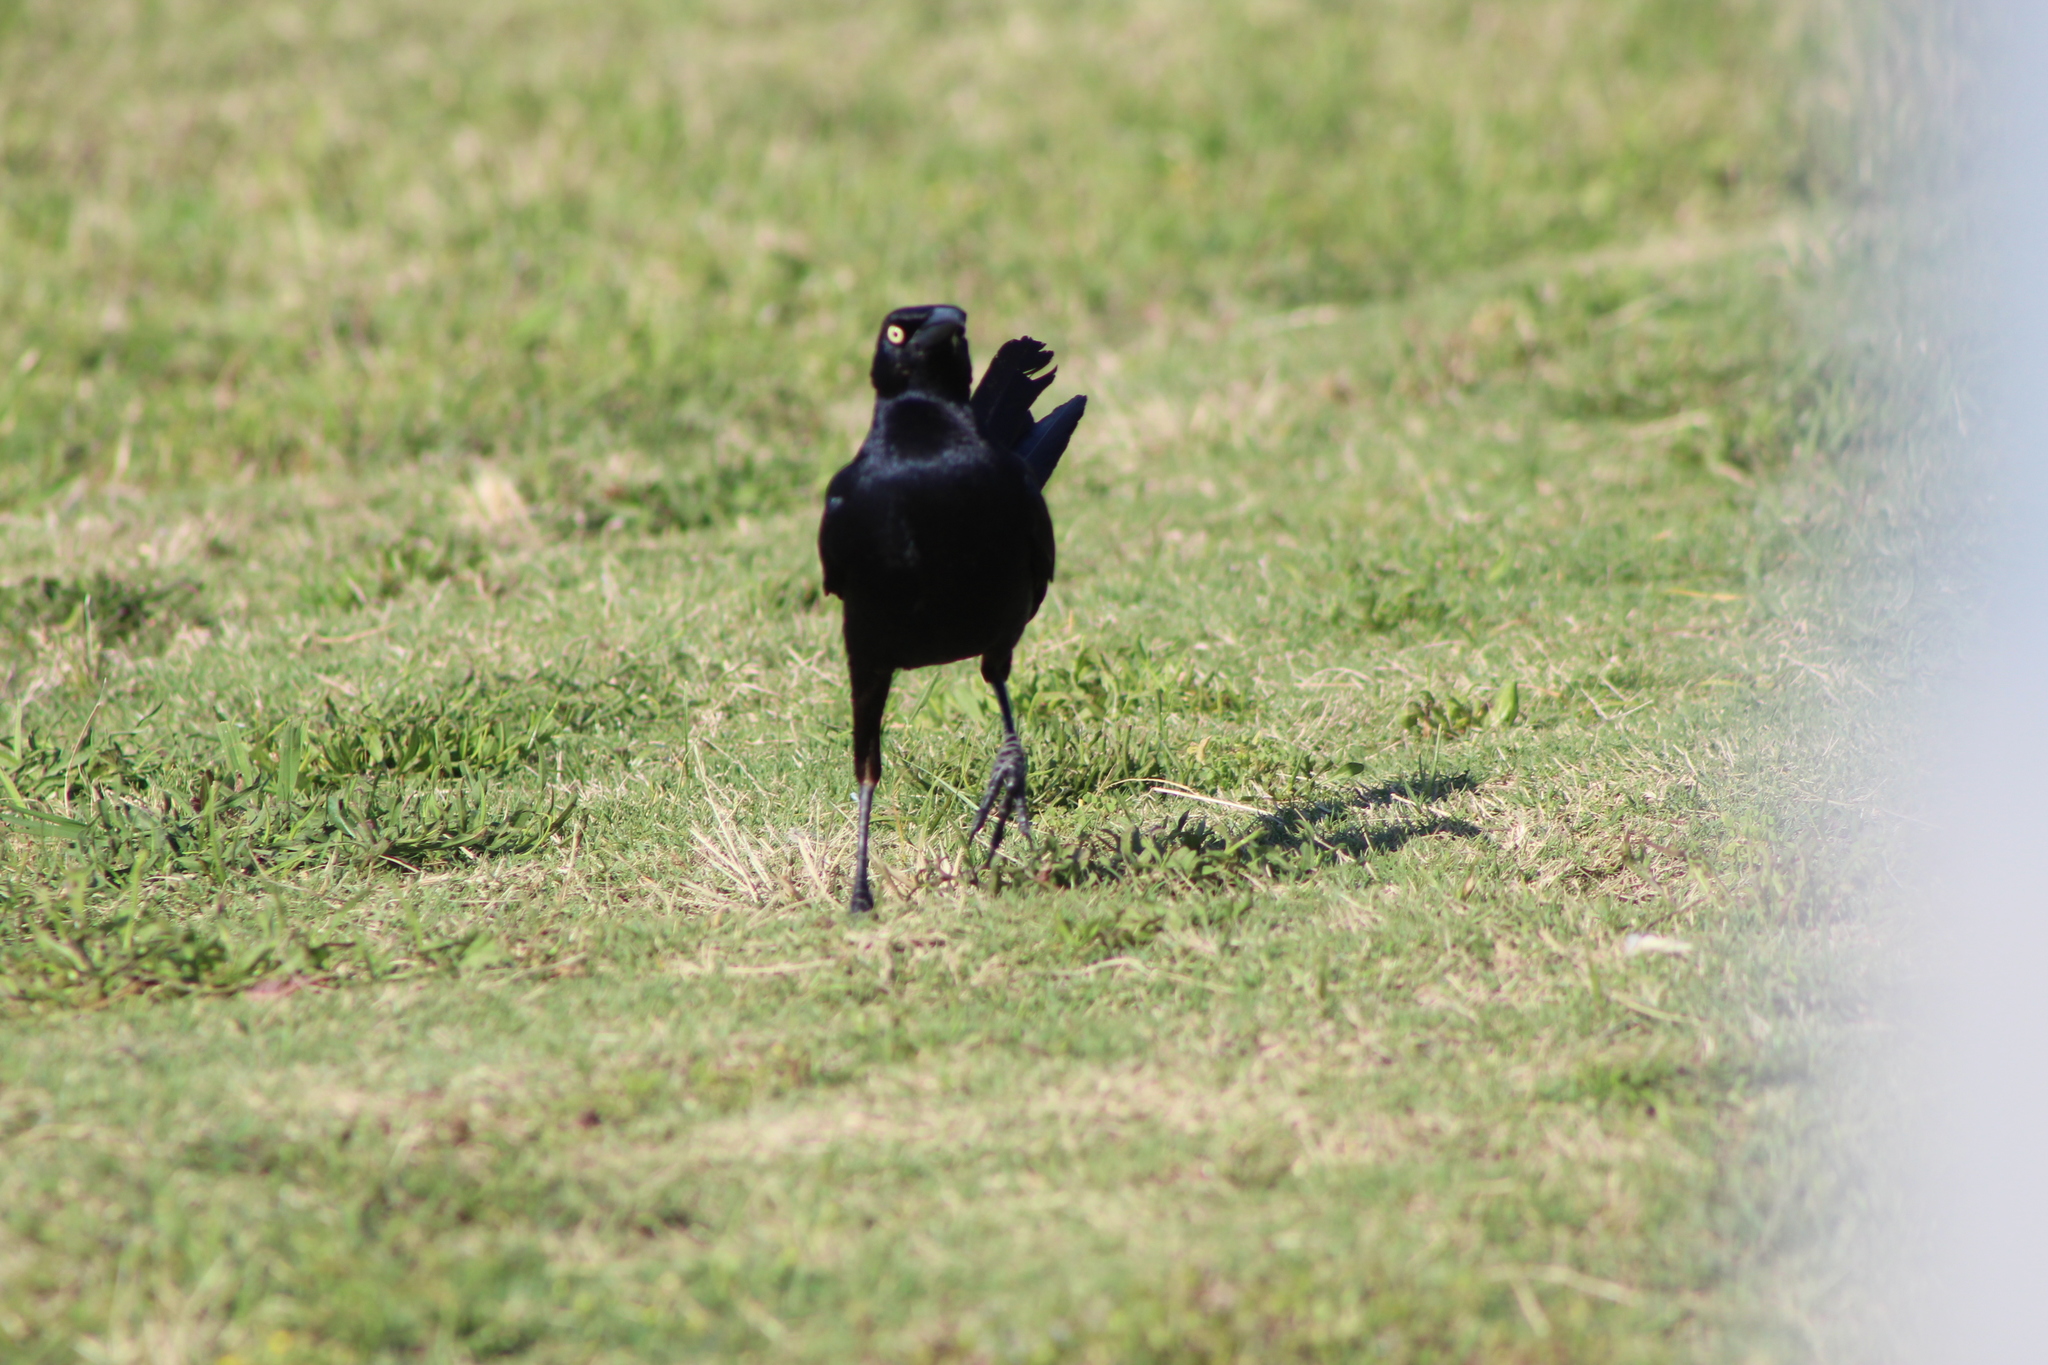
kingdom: Animalia
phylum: Chordata
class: Aves
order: Passeriformes
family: Icteridae
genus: Quiscalus
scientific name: Quiscalus mexicanus
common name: Great-tailed grackle
